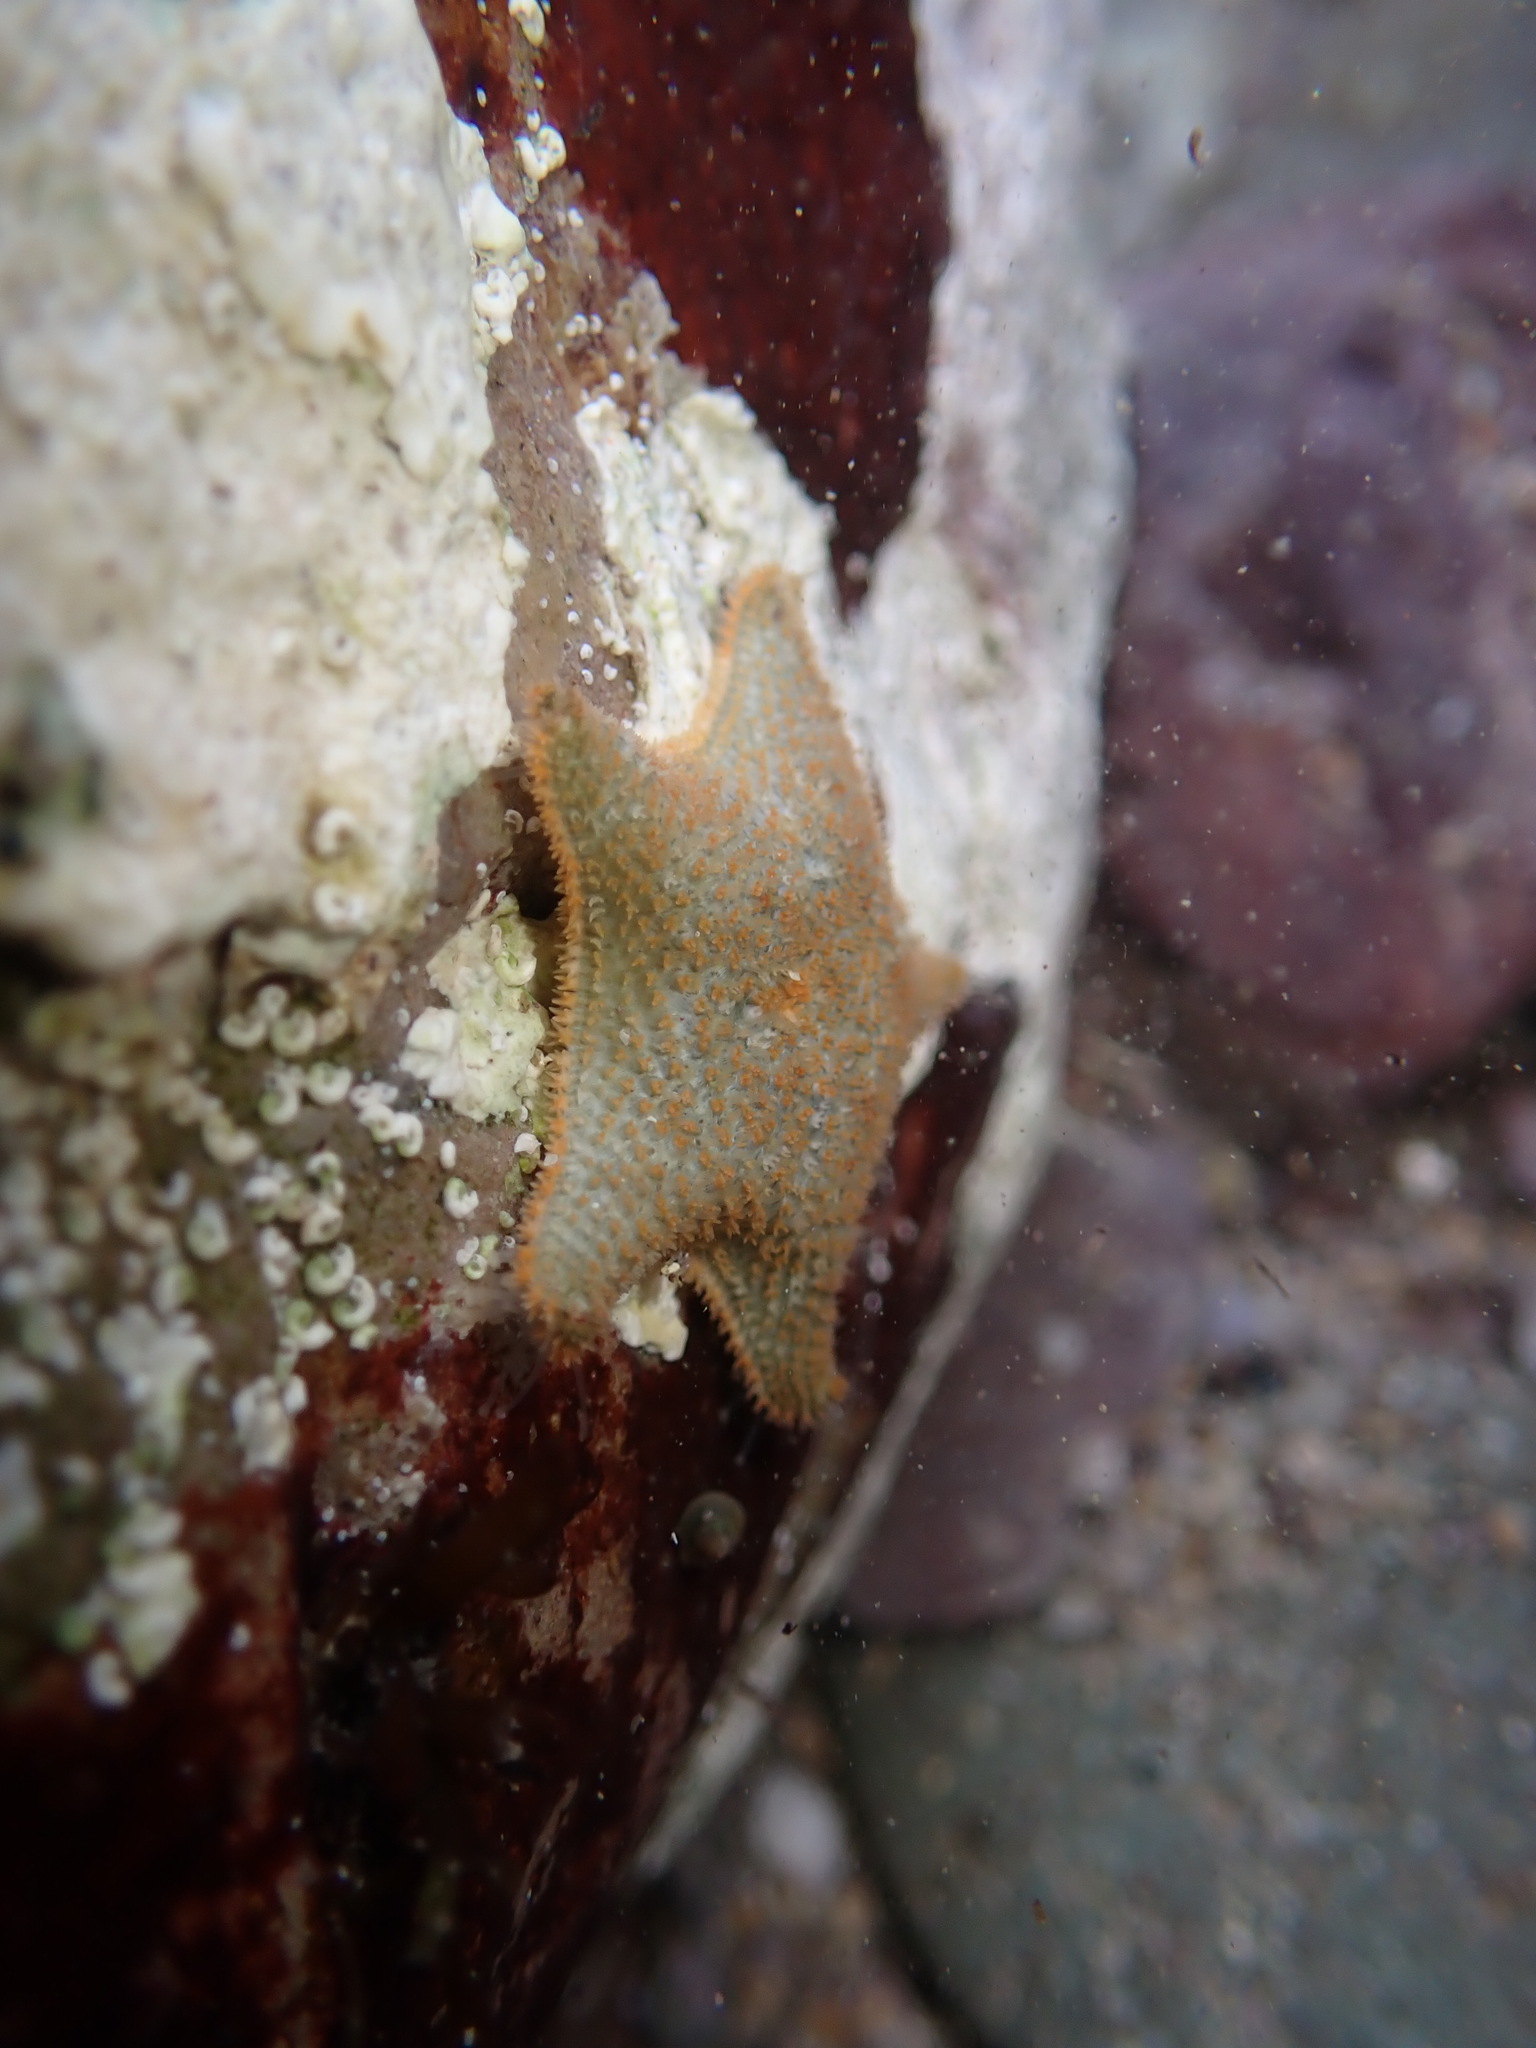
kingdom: Animalia
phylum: Echinodermata
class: Asteroidea
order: Valvatida
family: Asterinidae
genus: Asterina
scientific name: Asterina gibbosa
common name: Cushion star
